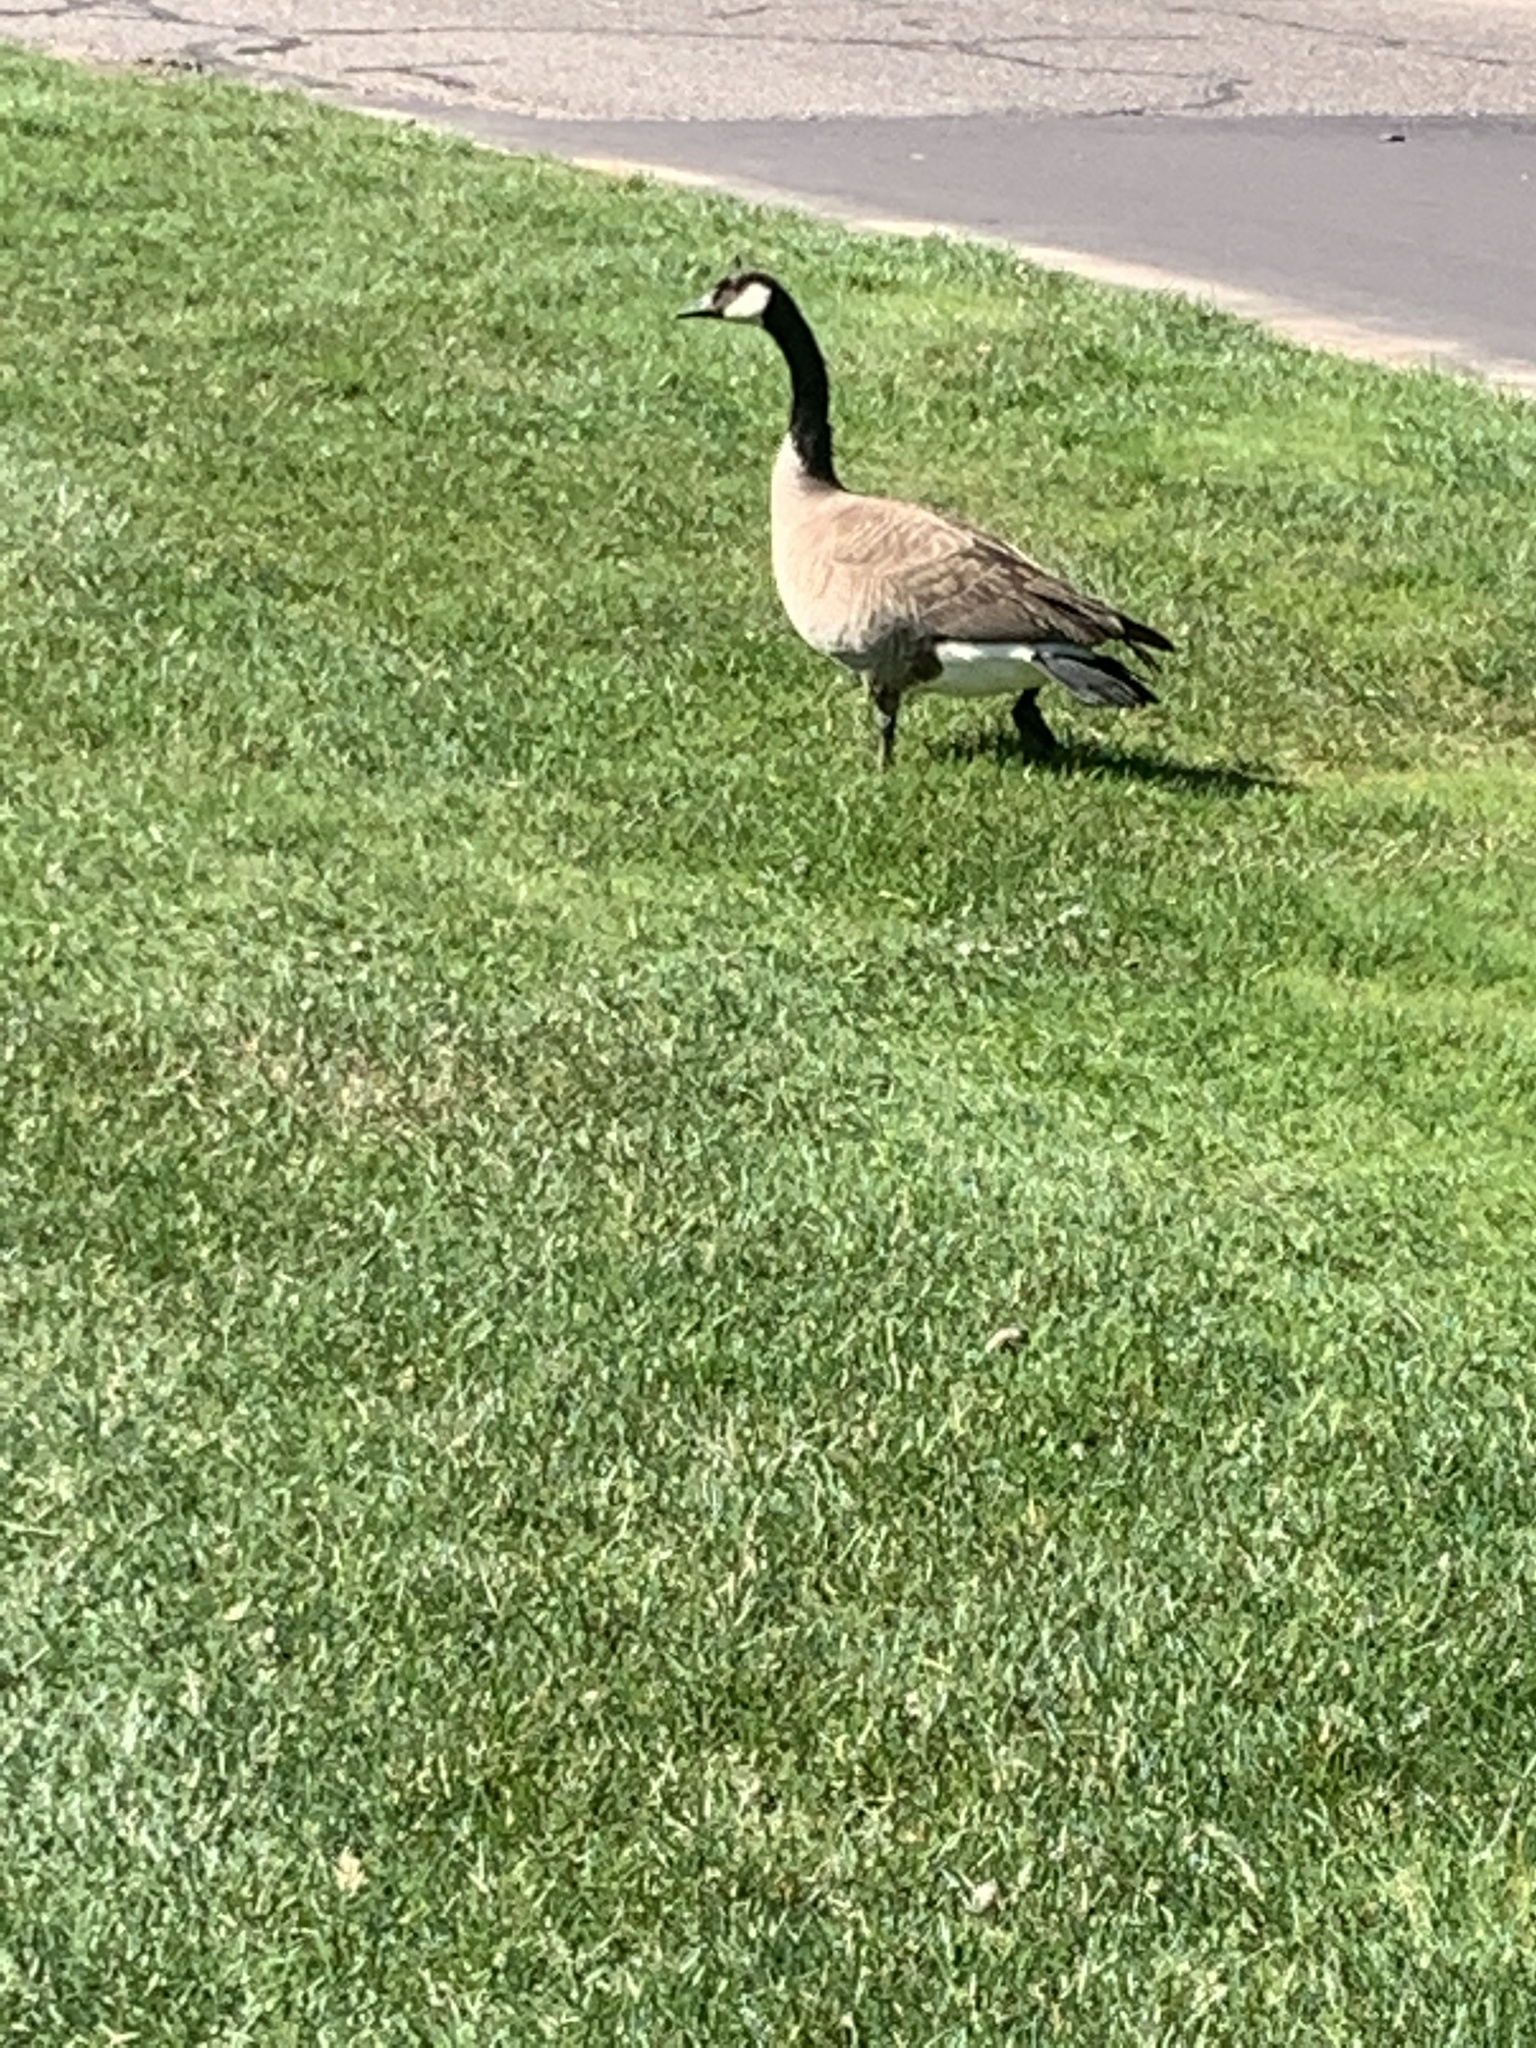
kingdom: Animalia
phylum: Chordata
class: Aves
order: Anseriformes
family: Anatidae
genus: Branta
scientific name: Branta canadensis
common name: Canada goose
